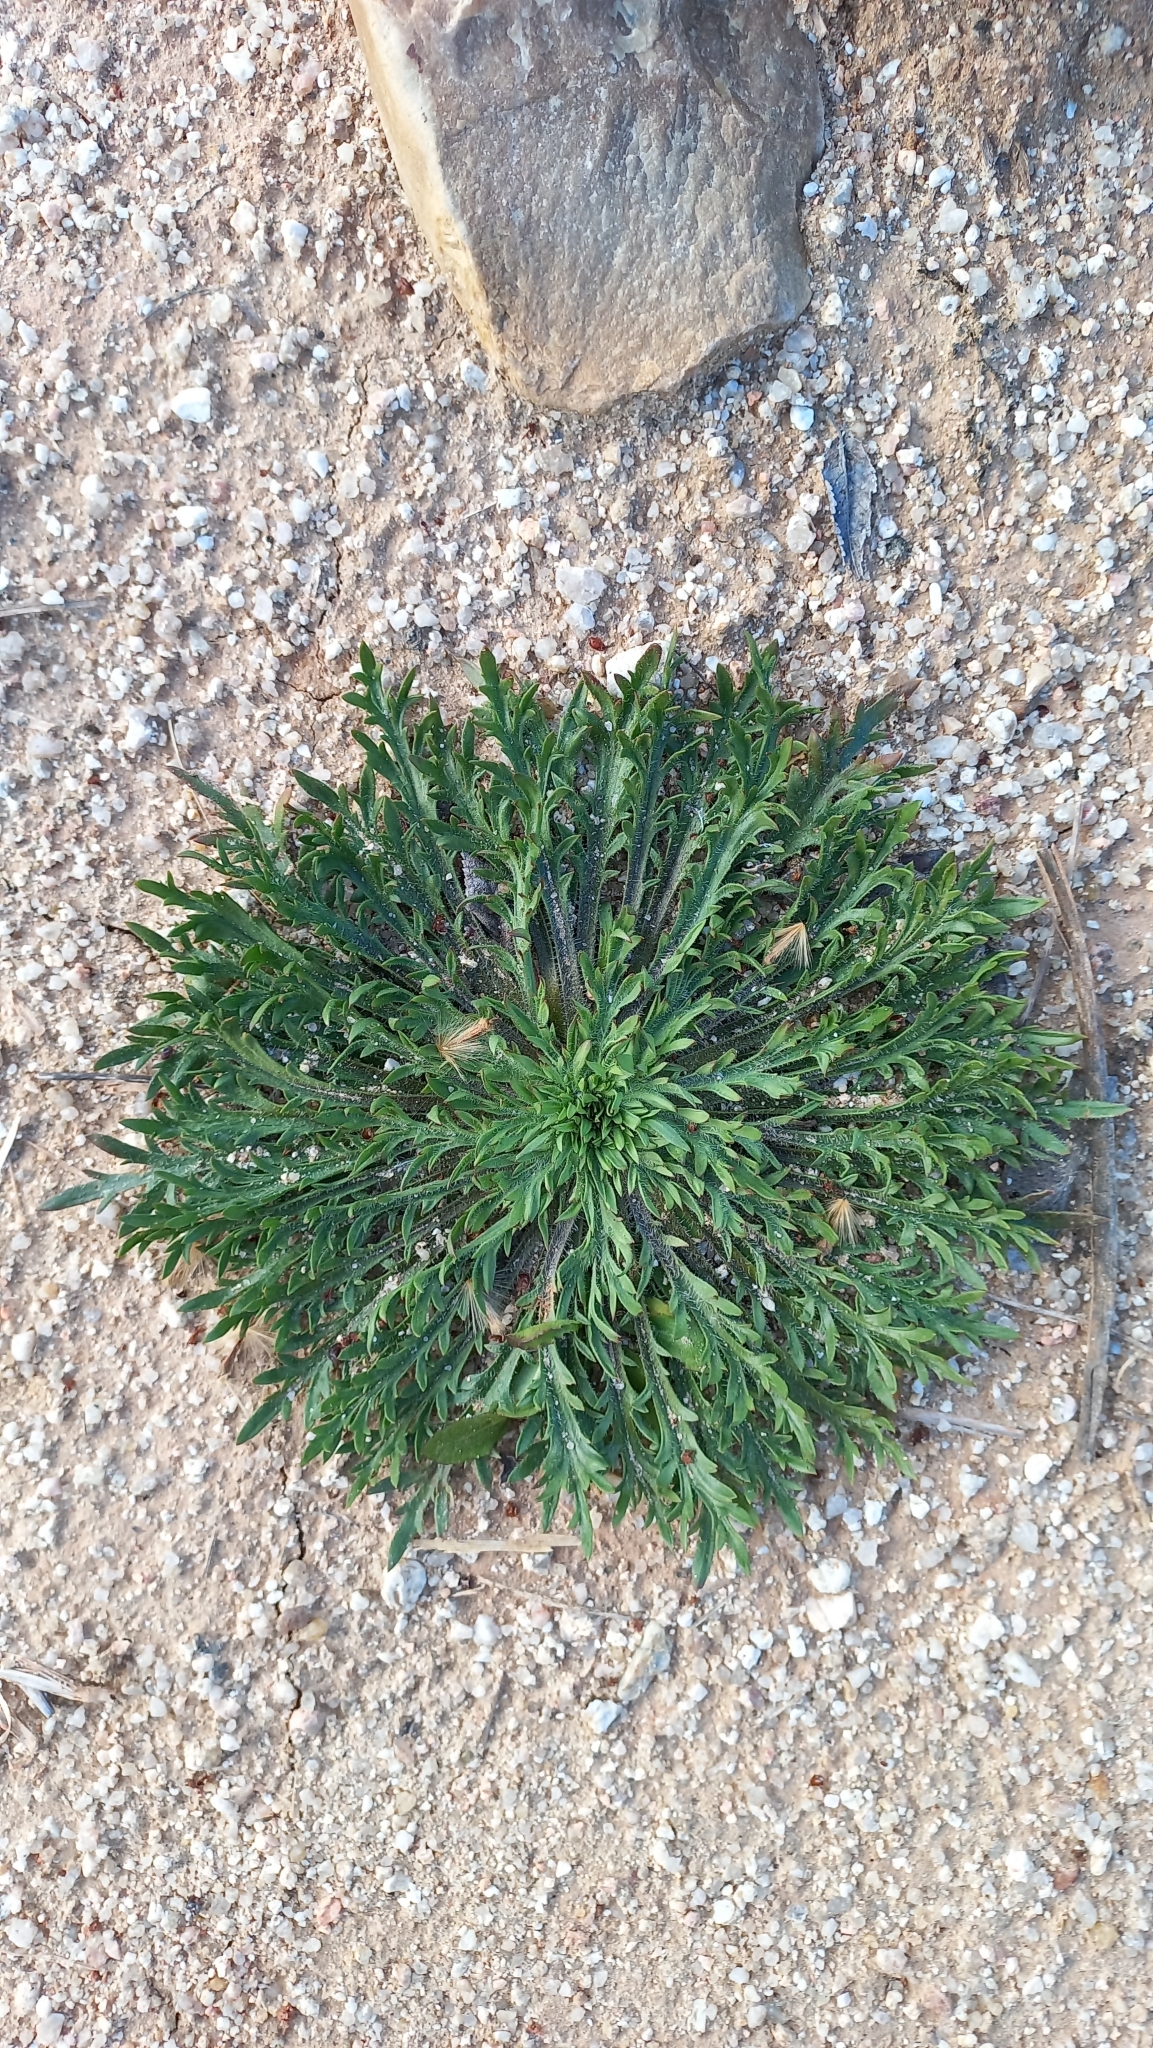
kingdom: Plantae
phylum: Tracheophyta
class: Magnoliopsida
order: Lamiales
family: Plantaginaceae
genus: Plantago
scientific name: Plantago coronopus
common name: Buck's-horn plantain
